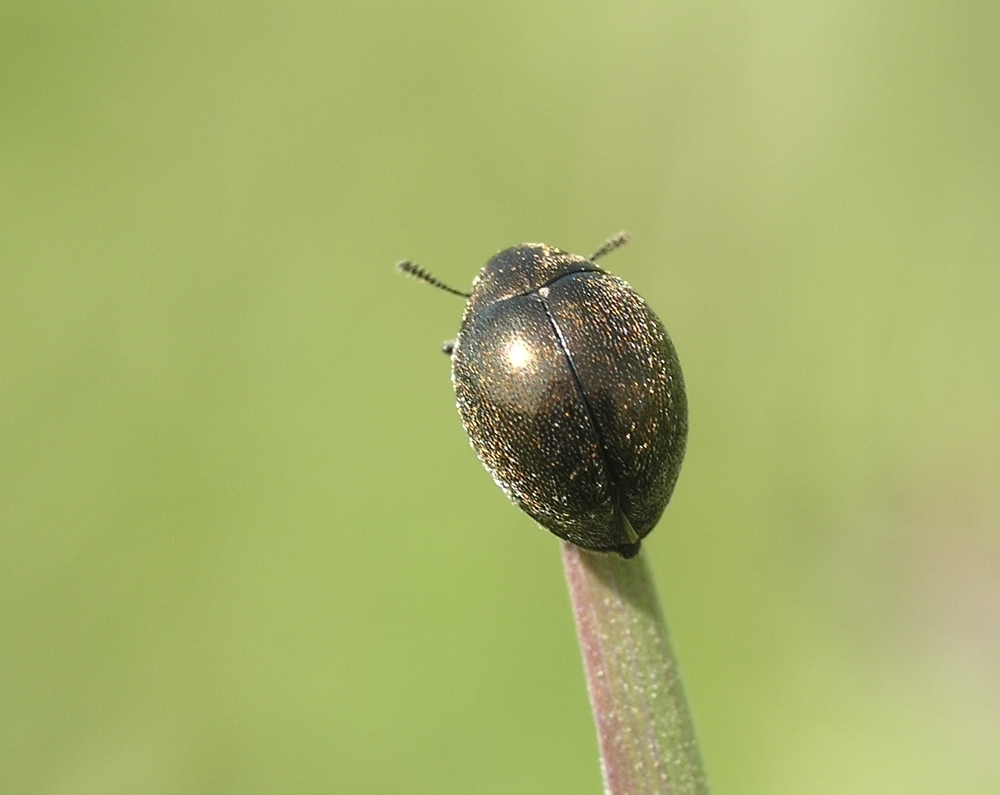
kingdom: Animalia
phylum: Arthropoda
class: Insecta
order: Coleoptera
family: Byrrhidae
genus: Lamprobyrrhulus
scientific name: Lamprobyrrhulus nitidus
